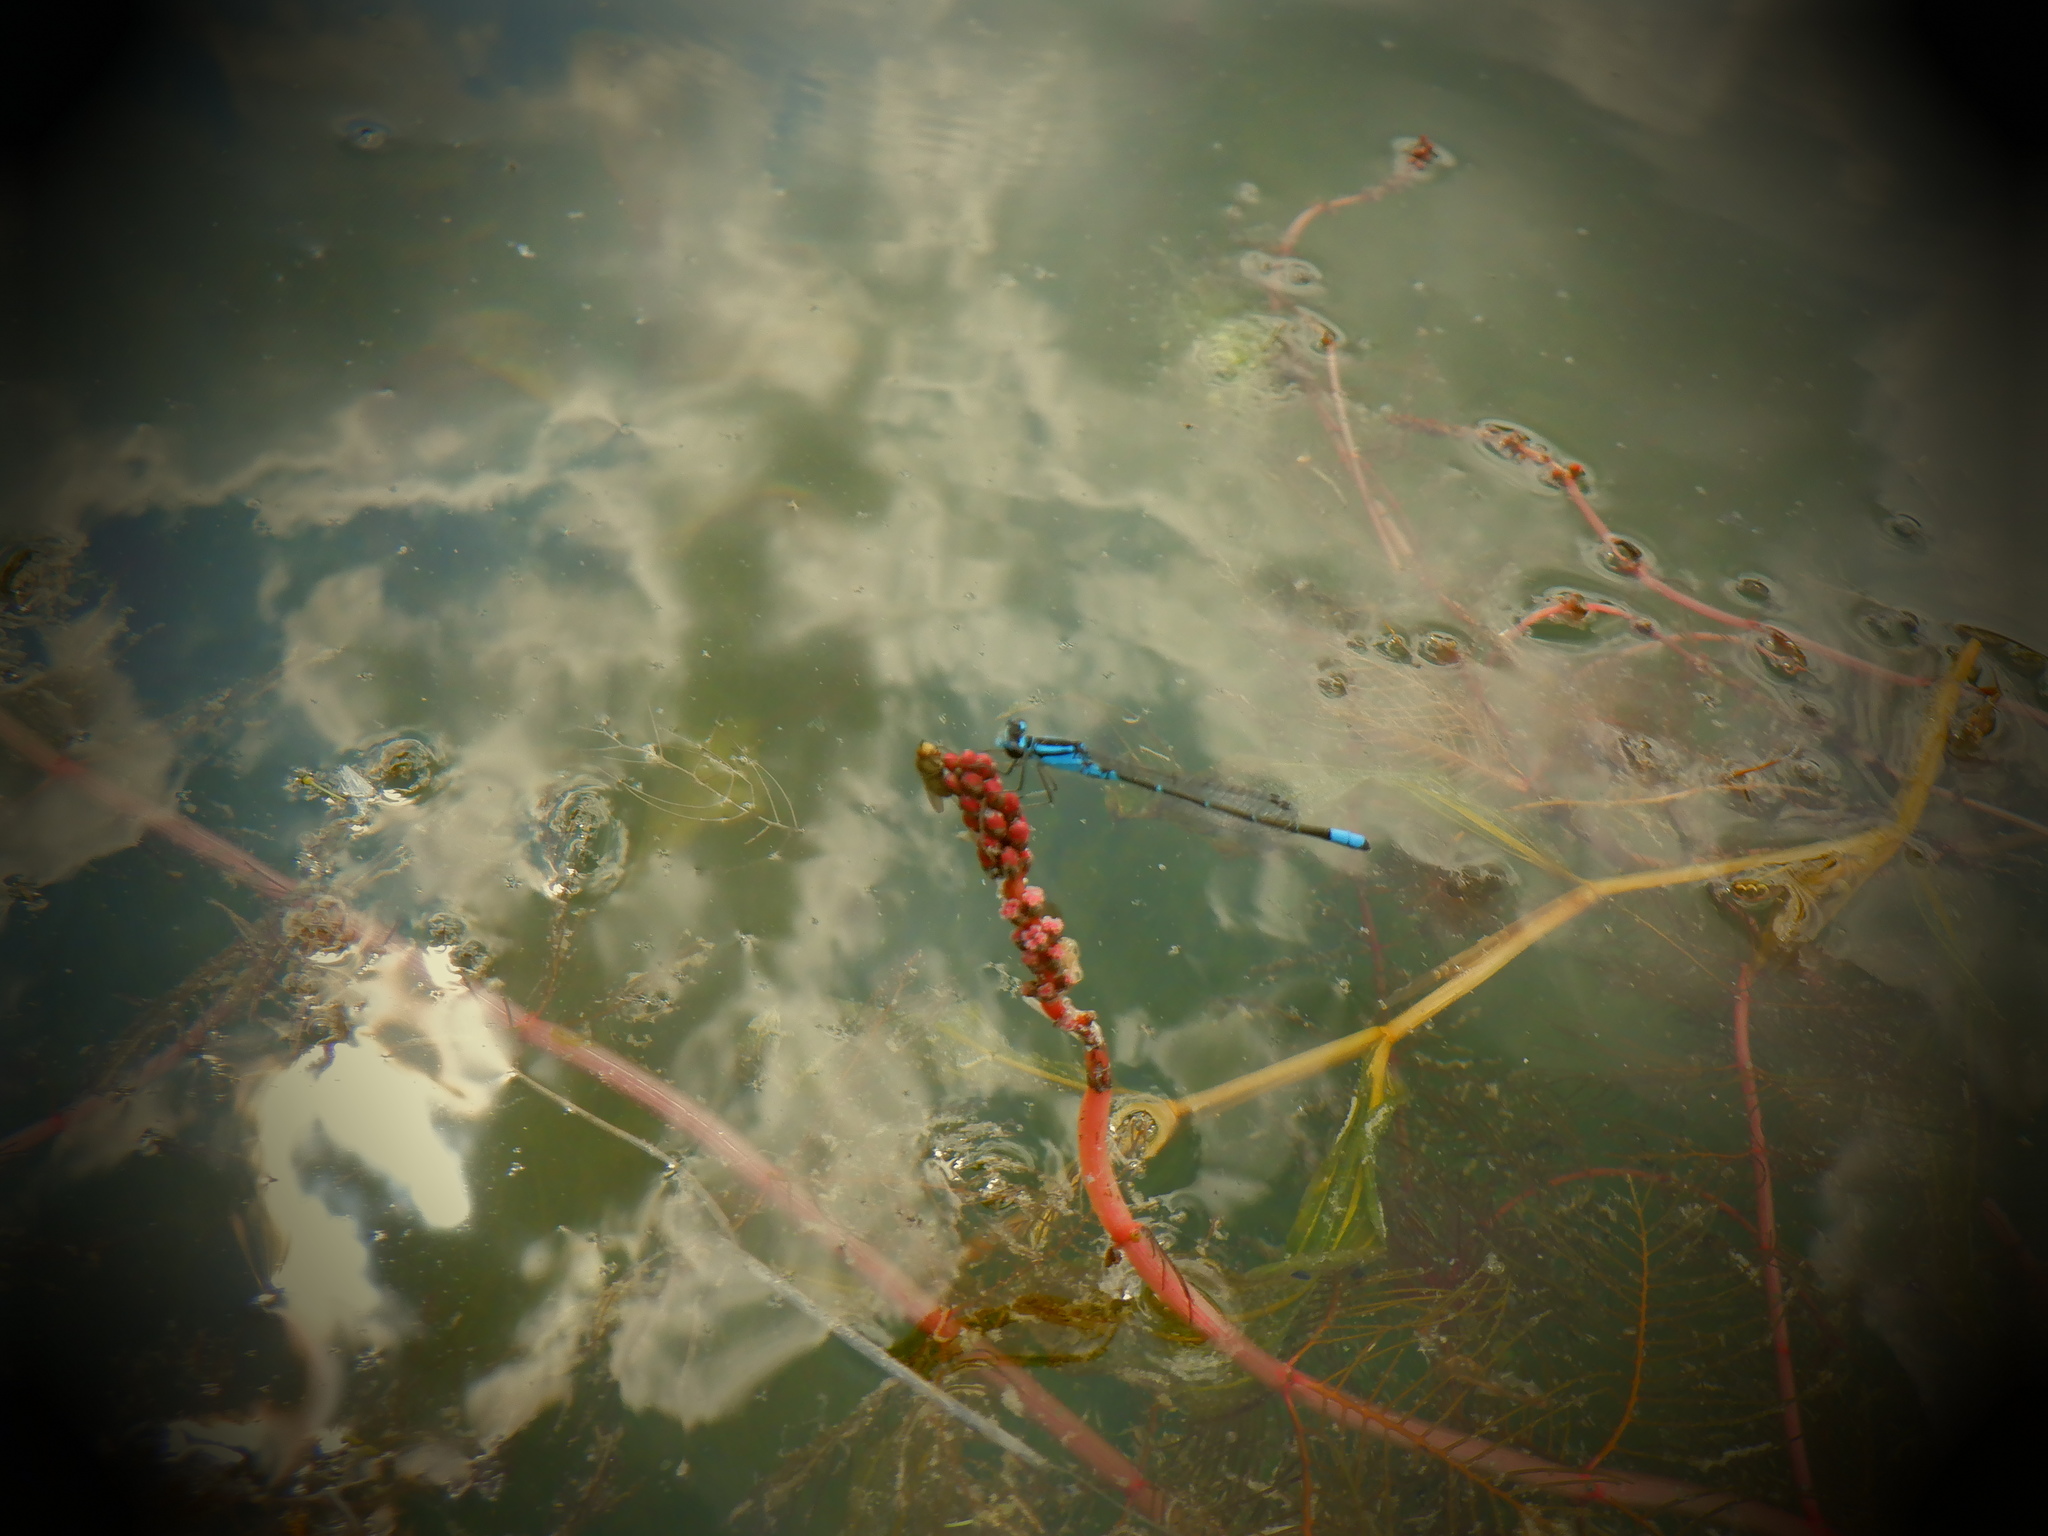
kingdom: Animalia
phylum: Arthropoda
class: Insecta
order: Odonata
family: Coenagrionidae
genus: Enallagma
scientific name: Enallagma geminatum
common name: Skimming bluet
